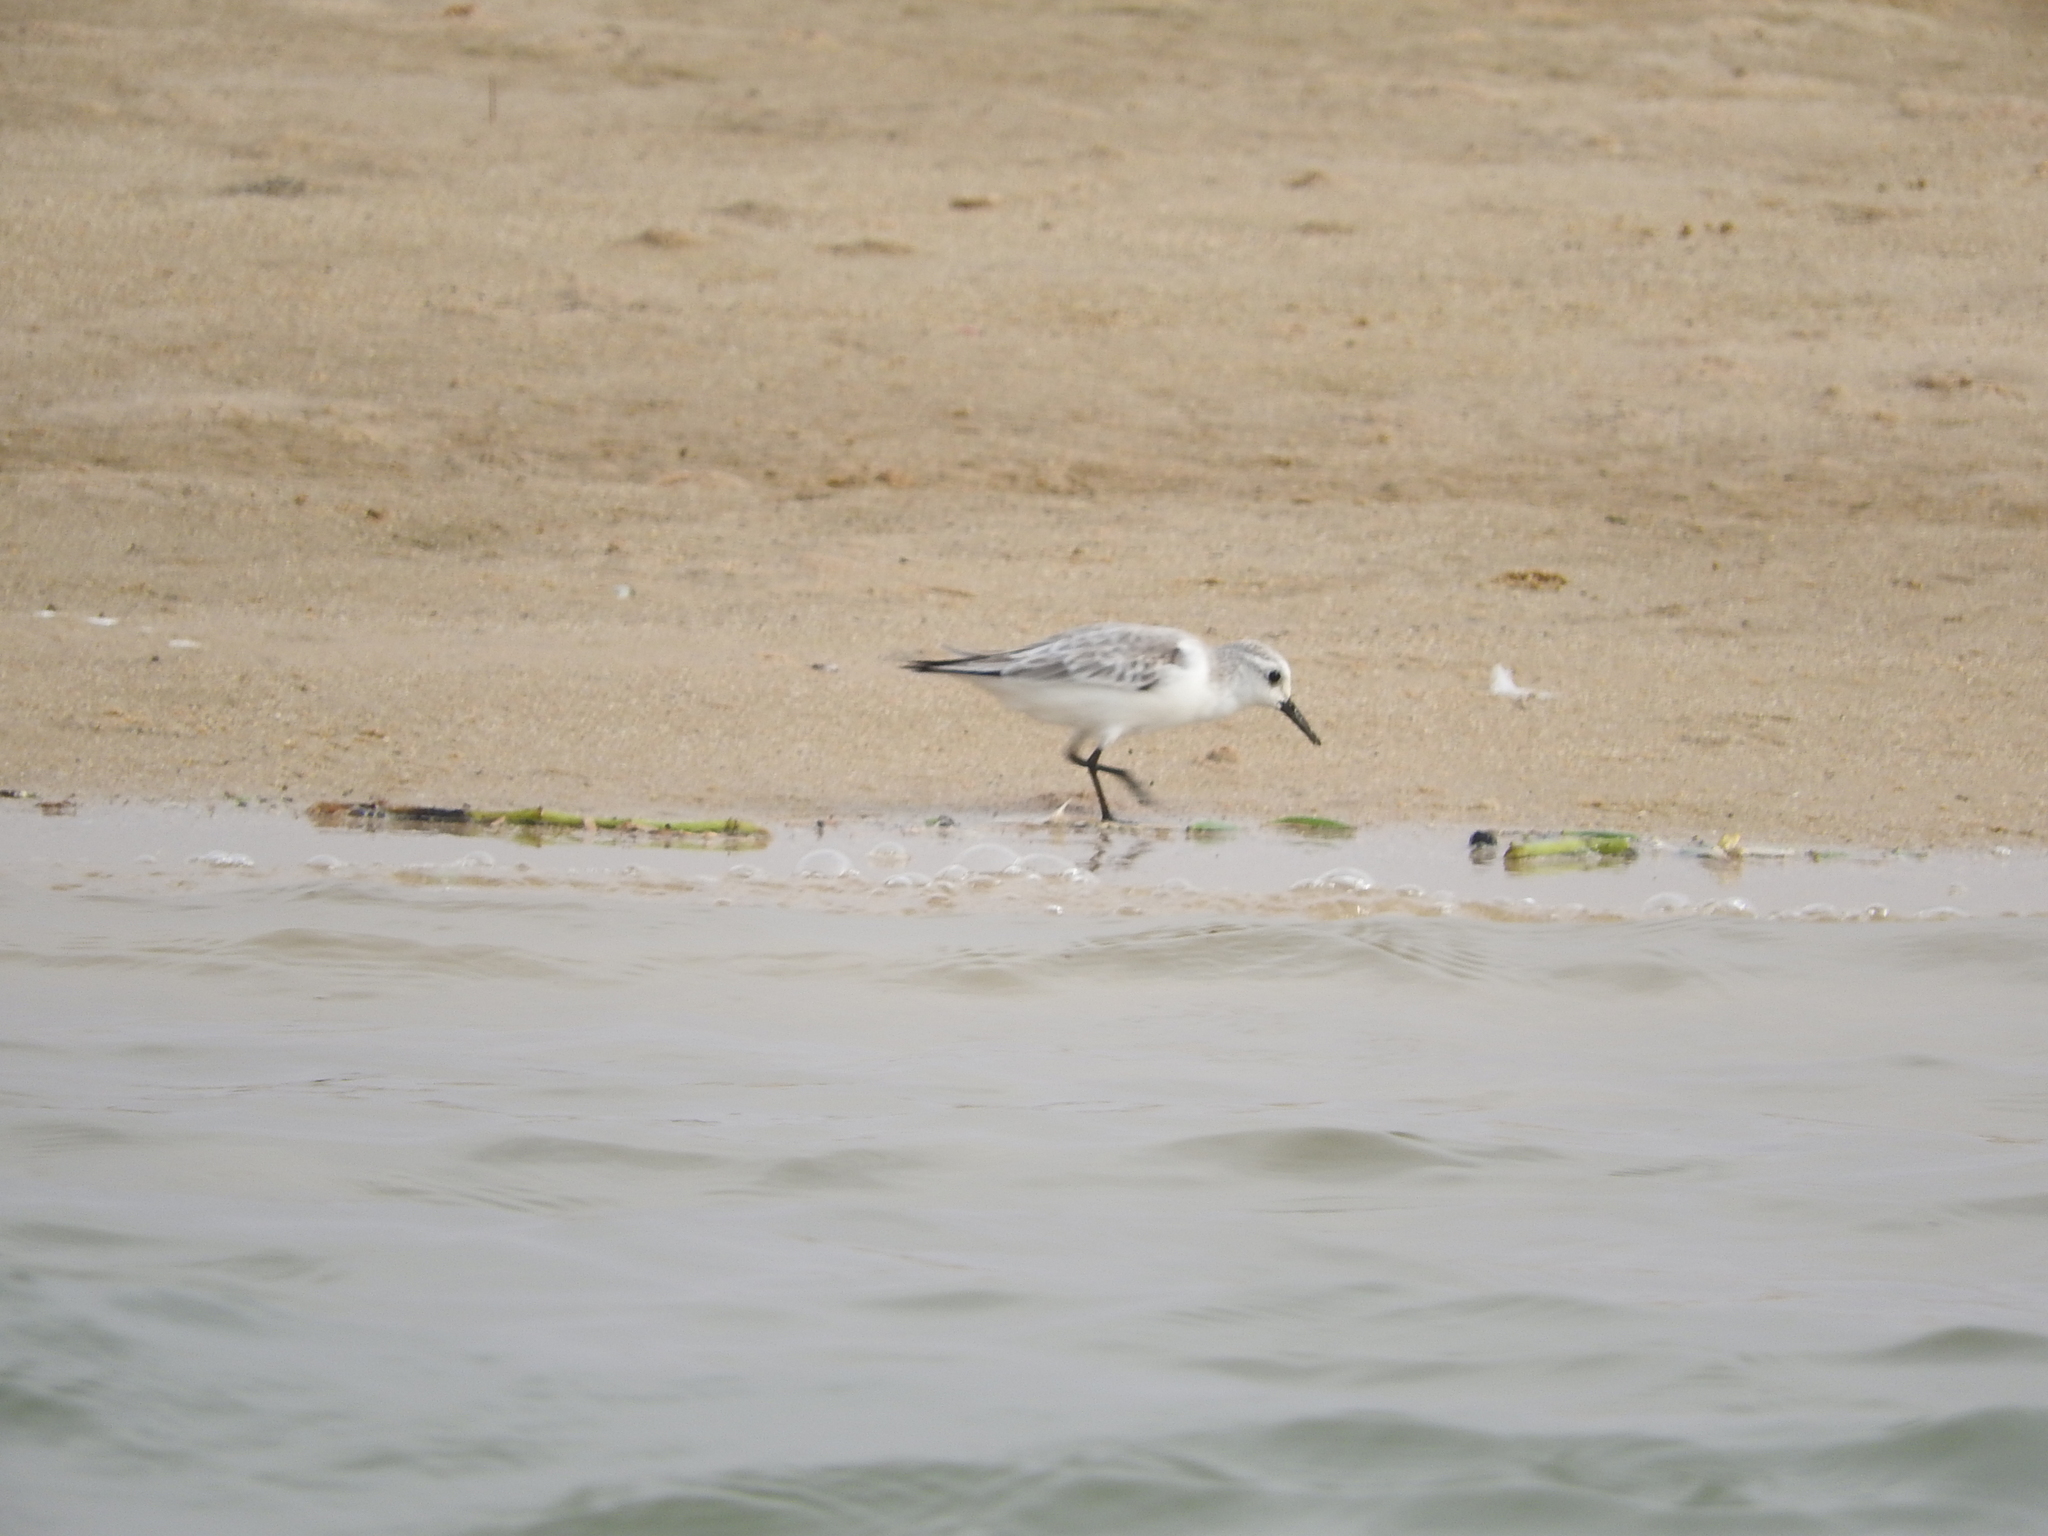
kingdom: Animalia
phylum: Chordata
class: Aves
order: Charadriiformes
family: Scolopacidae
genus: Calidris
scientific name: Calidris alba
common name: Sanderling
